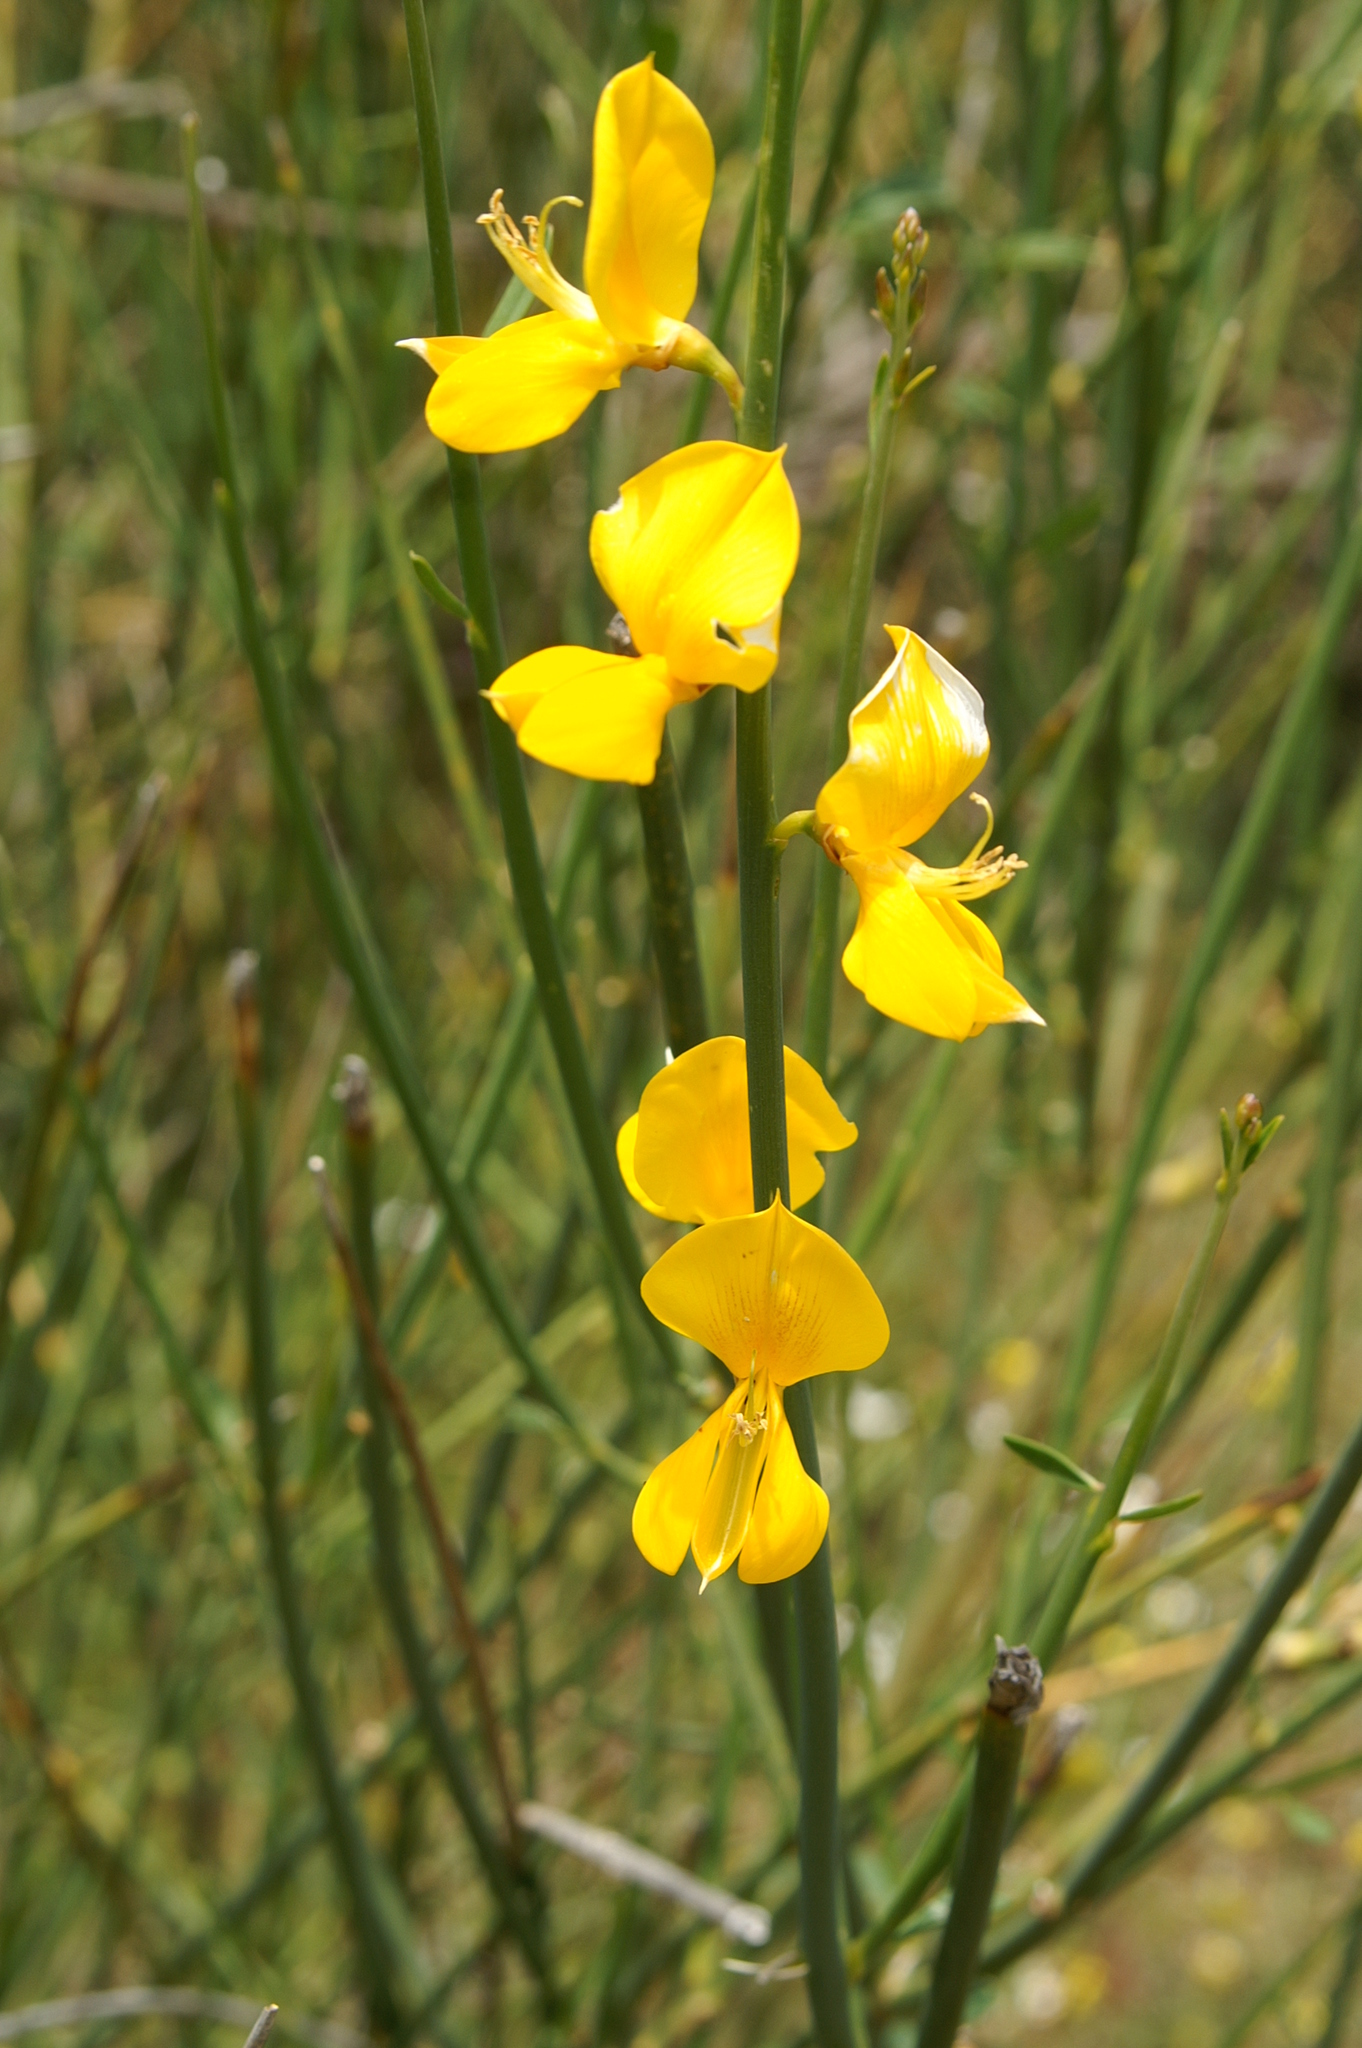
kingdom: Plantae
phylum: Tracheophyta
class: Magnoliopsida
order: Fabales
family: Fabaceae
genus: Spartium
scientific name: Spartium junceum
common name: Spanish broom
